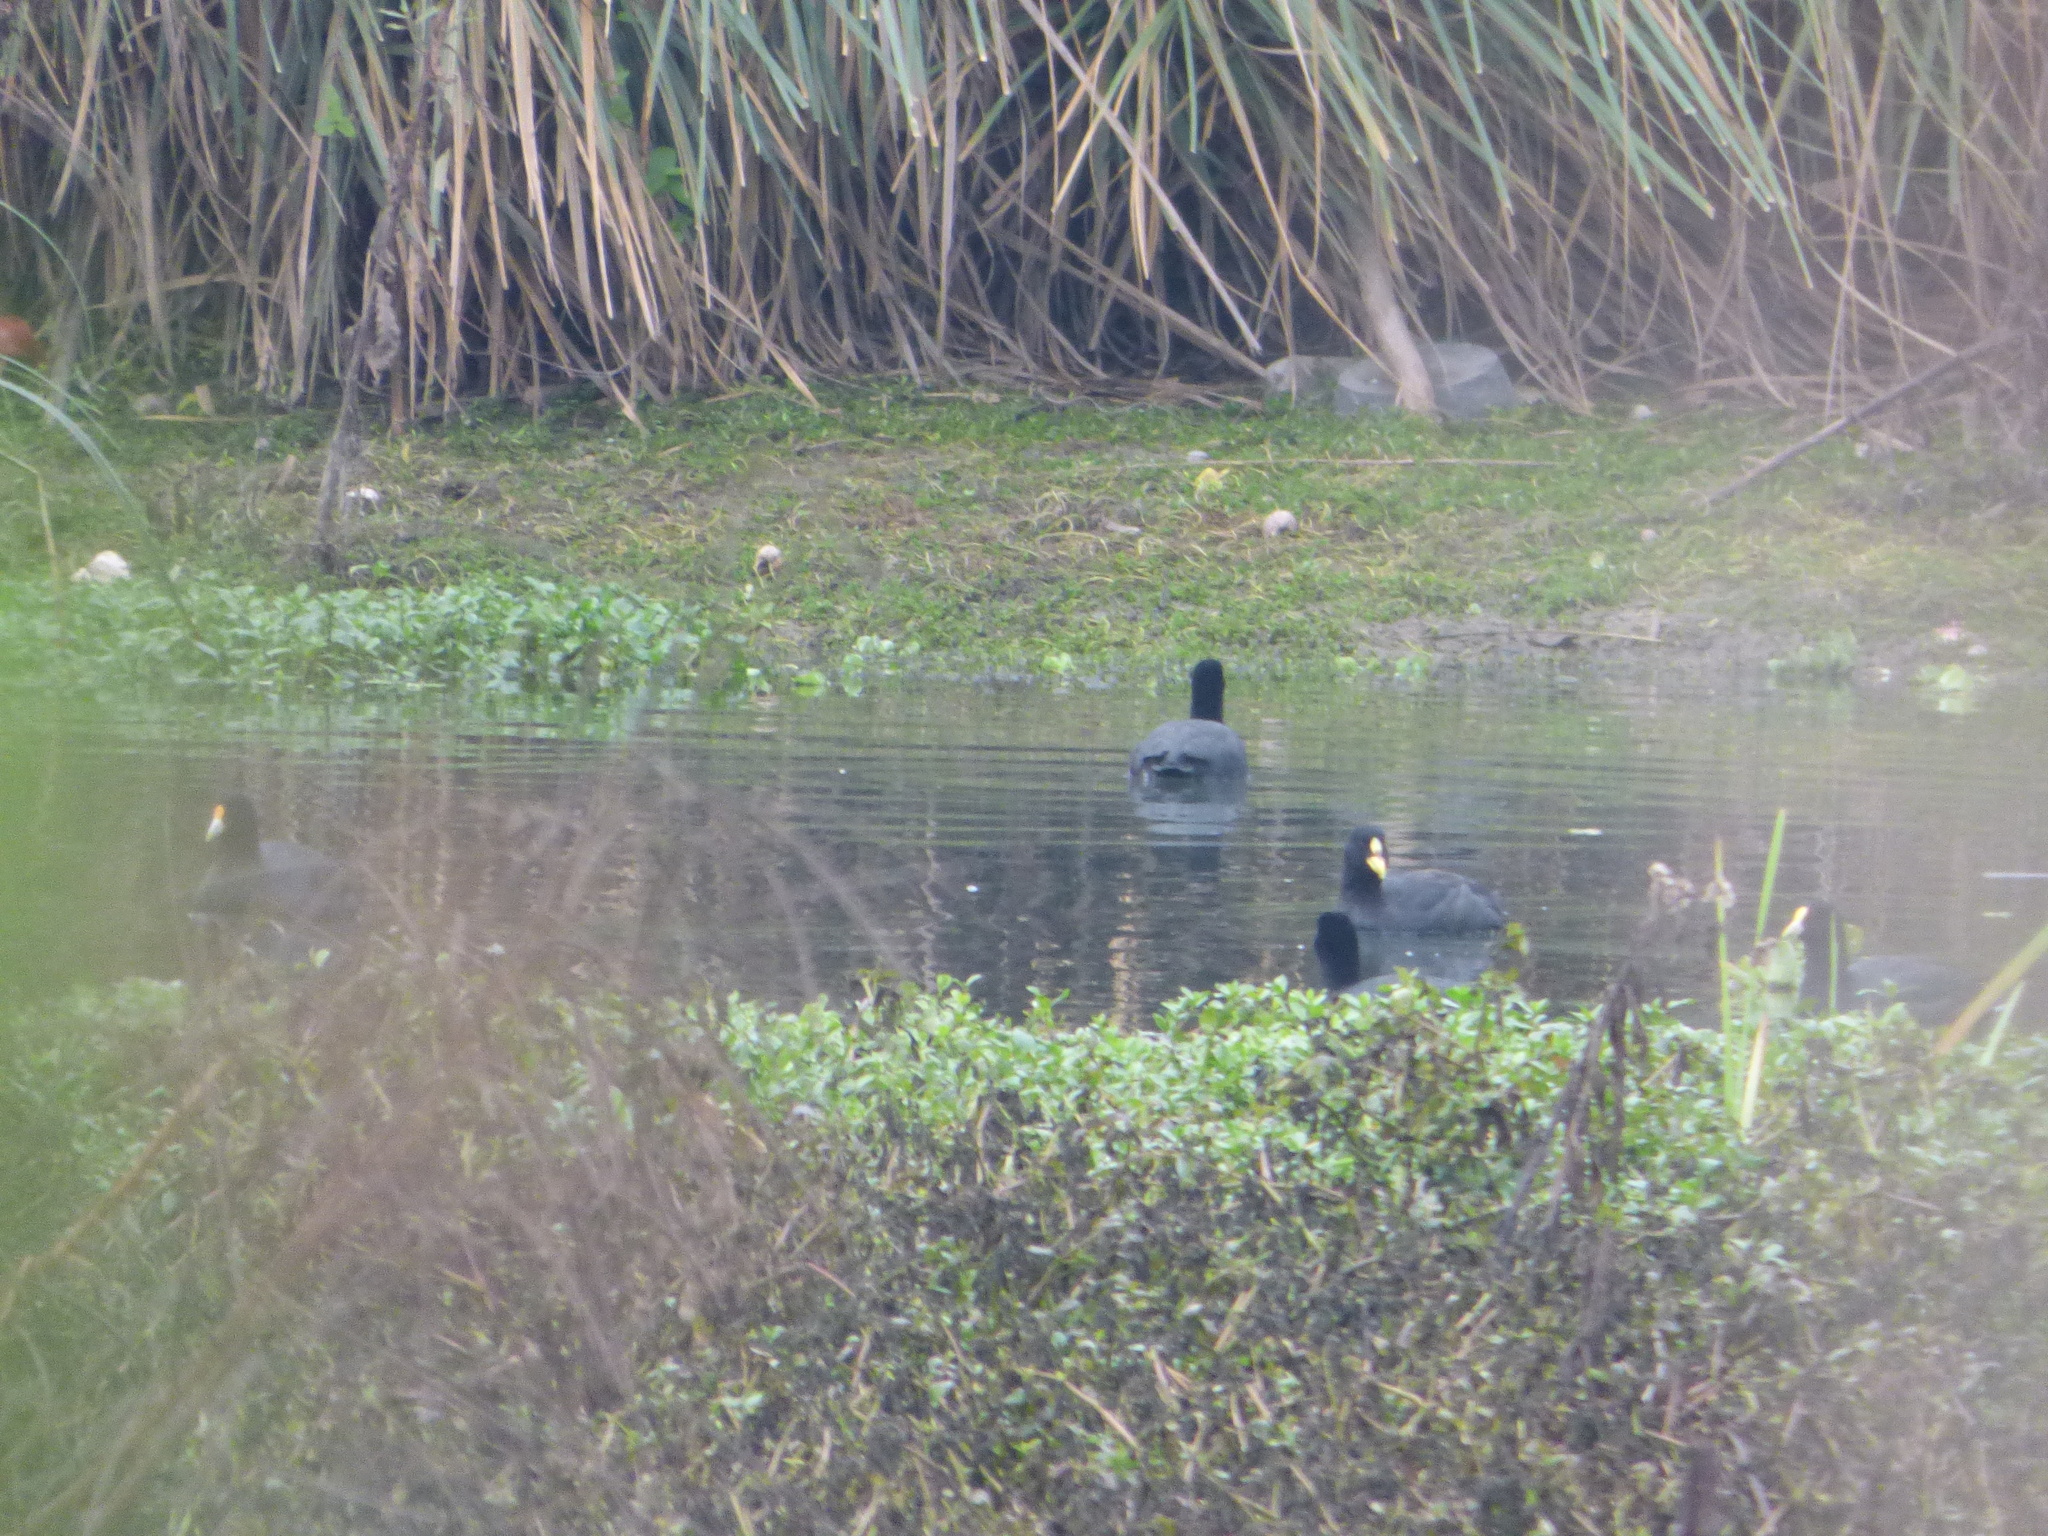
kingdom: Animalia
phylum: Chordata
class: Aves
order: Gruiformes
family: Rallidae
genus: Fulica
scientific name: Fulica armillata
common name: Red-gartered coot
